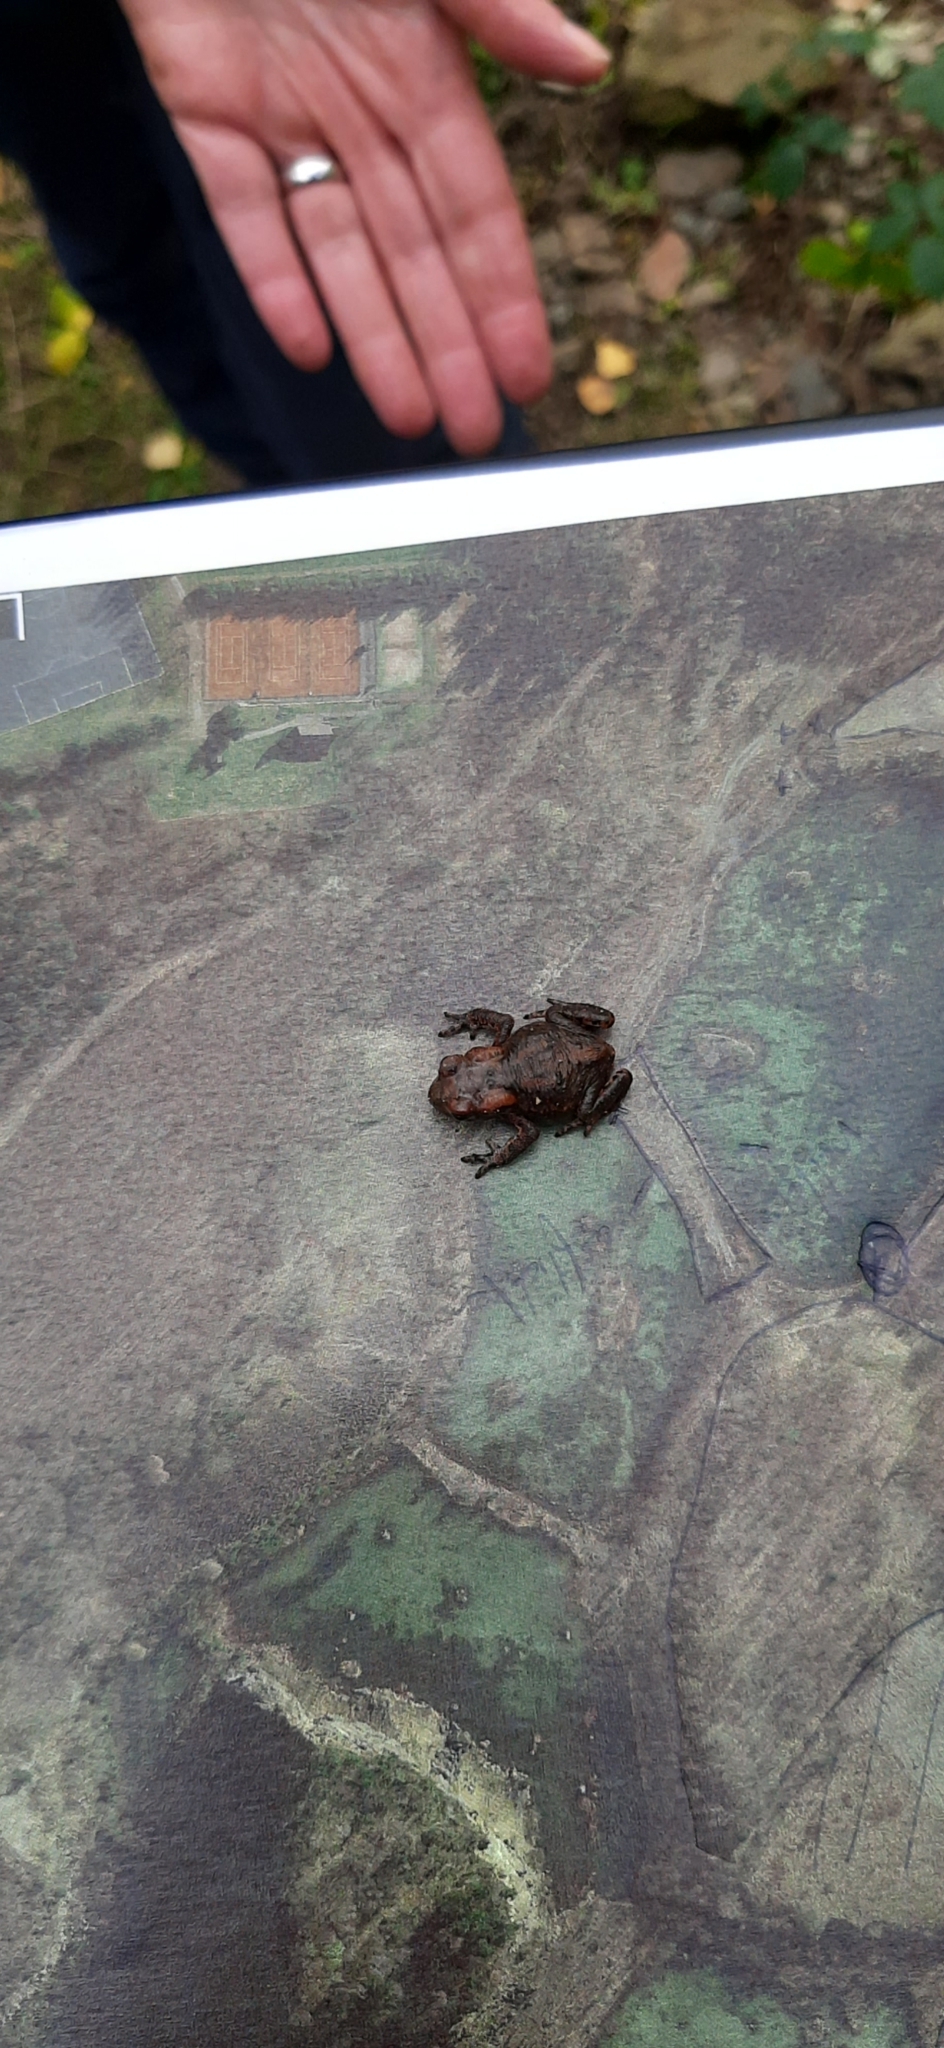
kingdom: Animalia
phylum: Chordata
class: Amphibia
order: Anura
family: Bufonidae
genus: Bufo
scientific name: Bufo bufo
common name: Common toad
